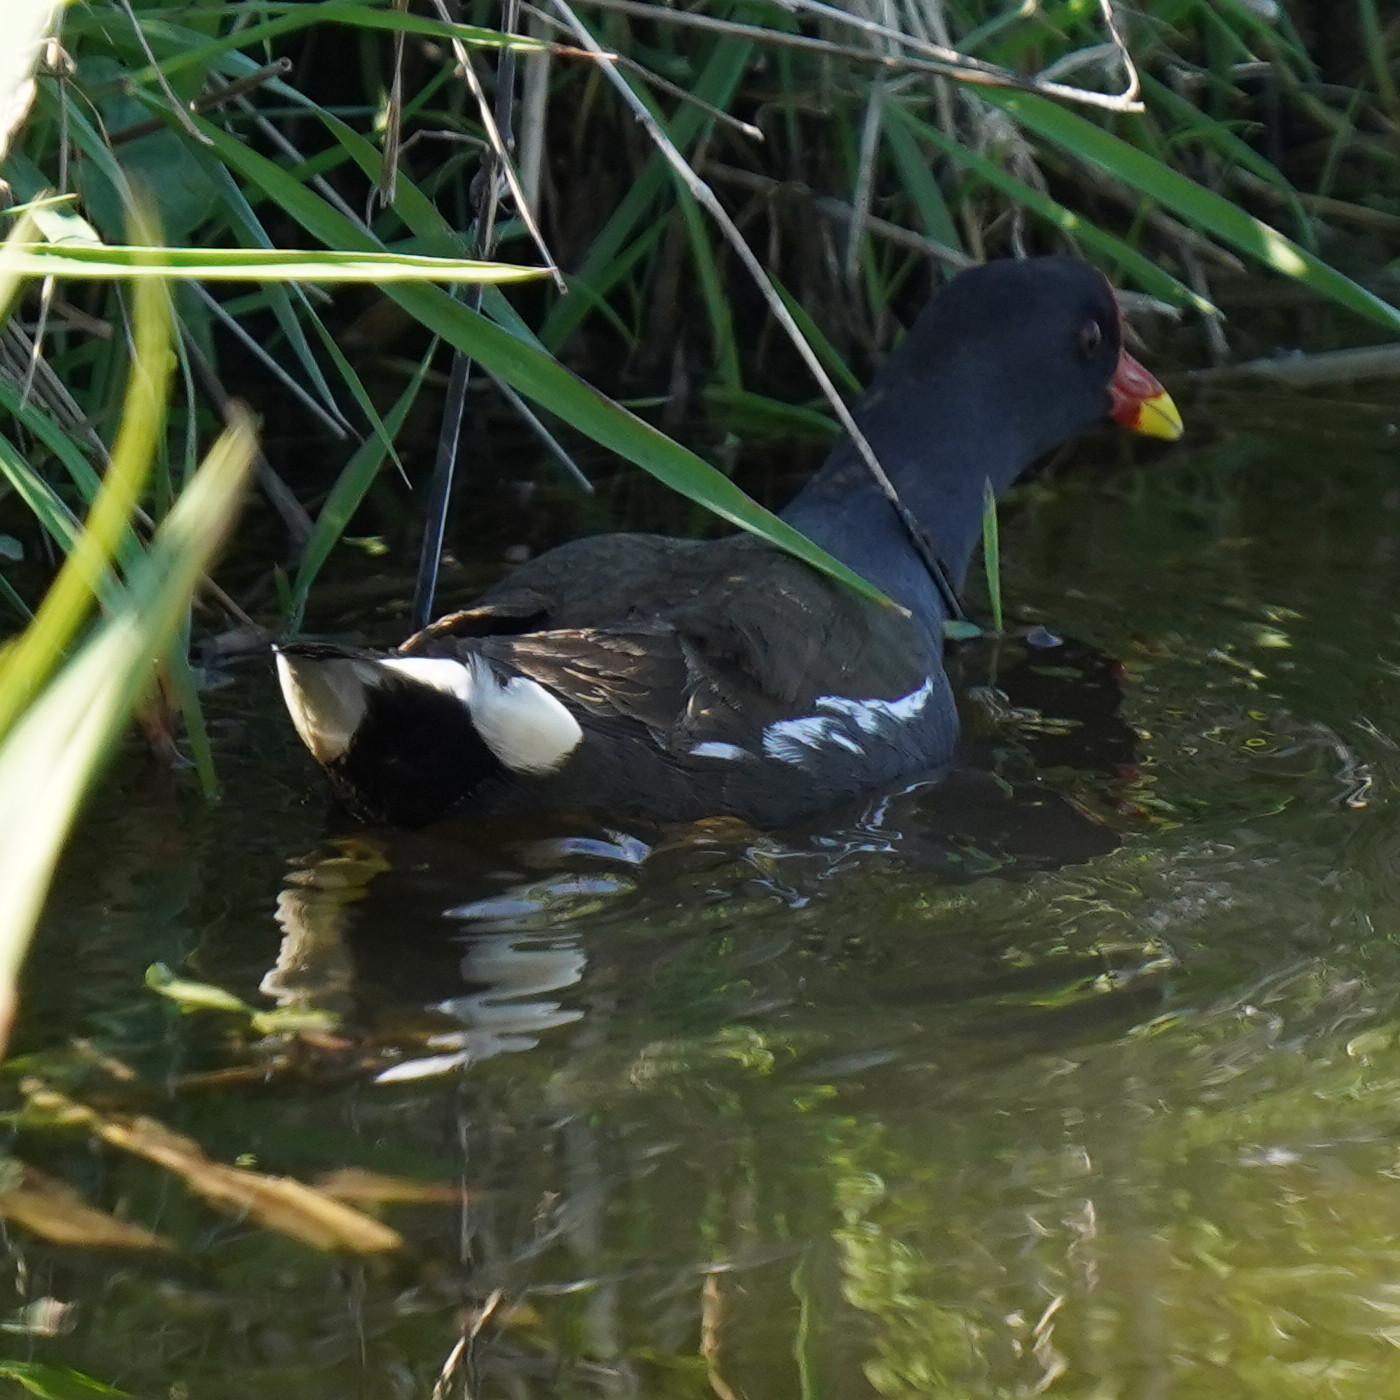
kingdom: Animalia
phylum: Chordata
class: Aves
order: Gruiformes
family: Rallidae
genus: Gallinula
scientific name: Gallinula chloropus
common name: Common moorhen
